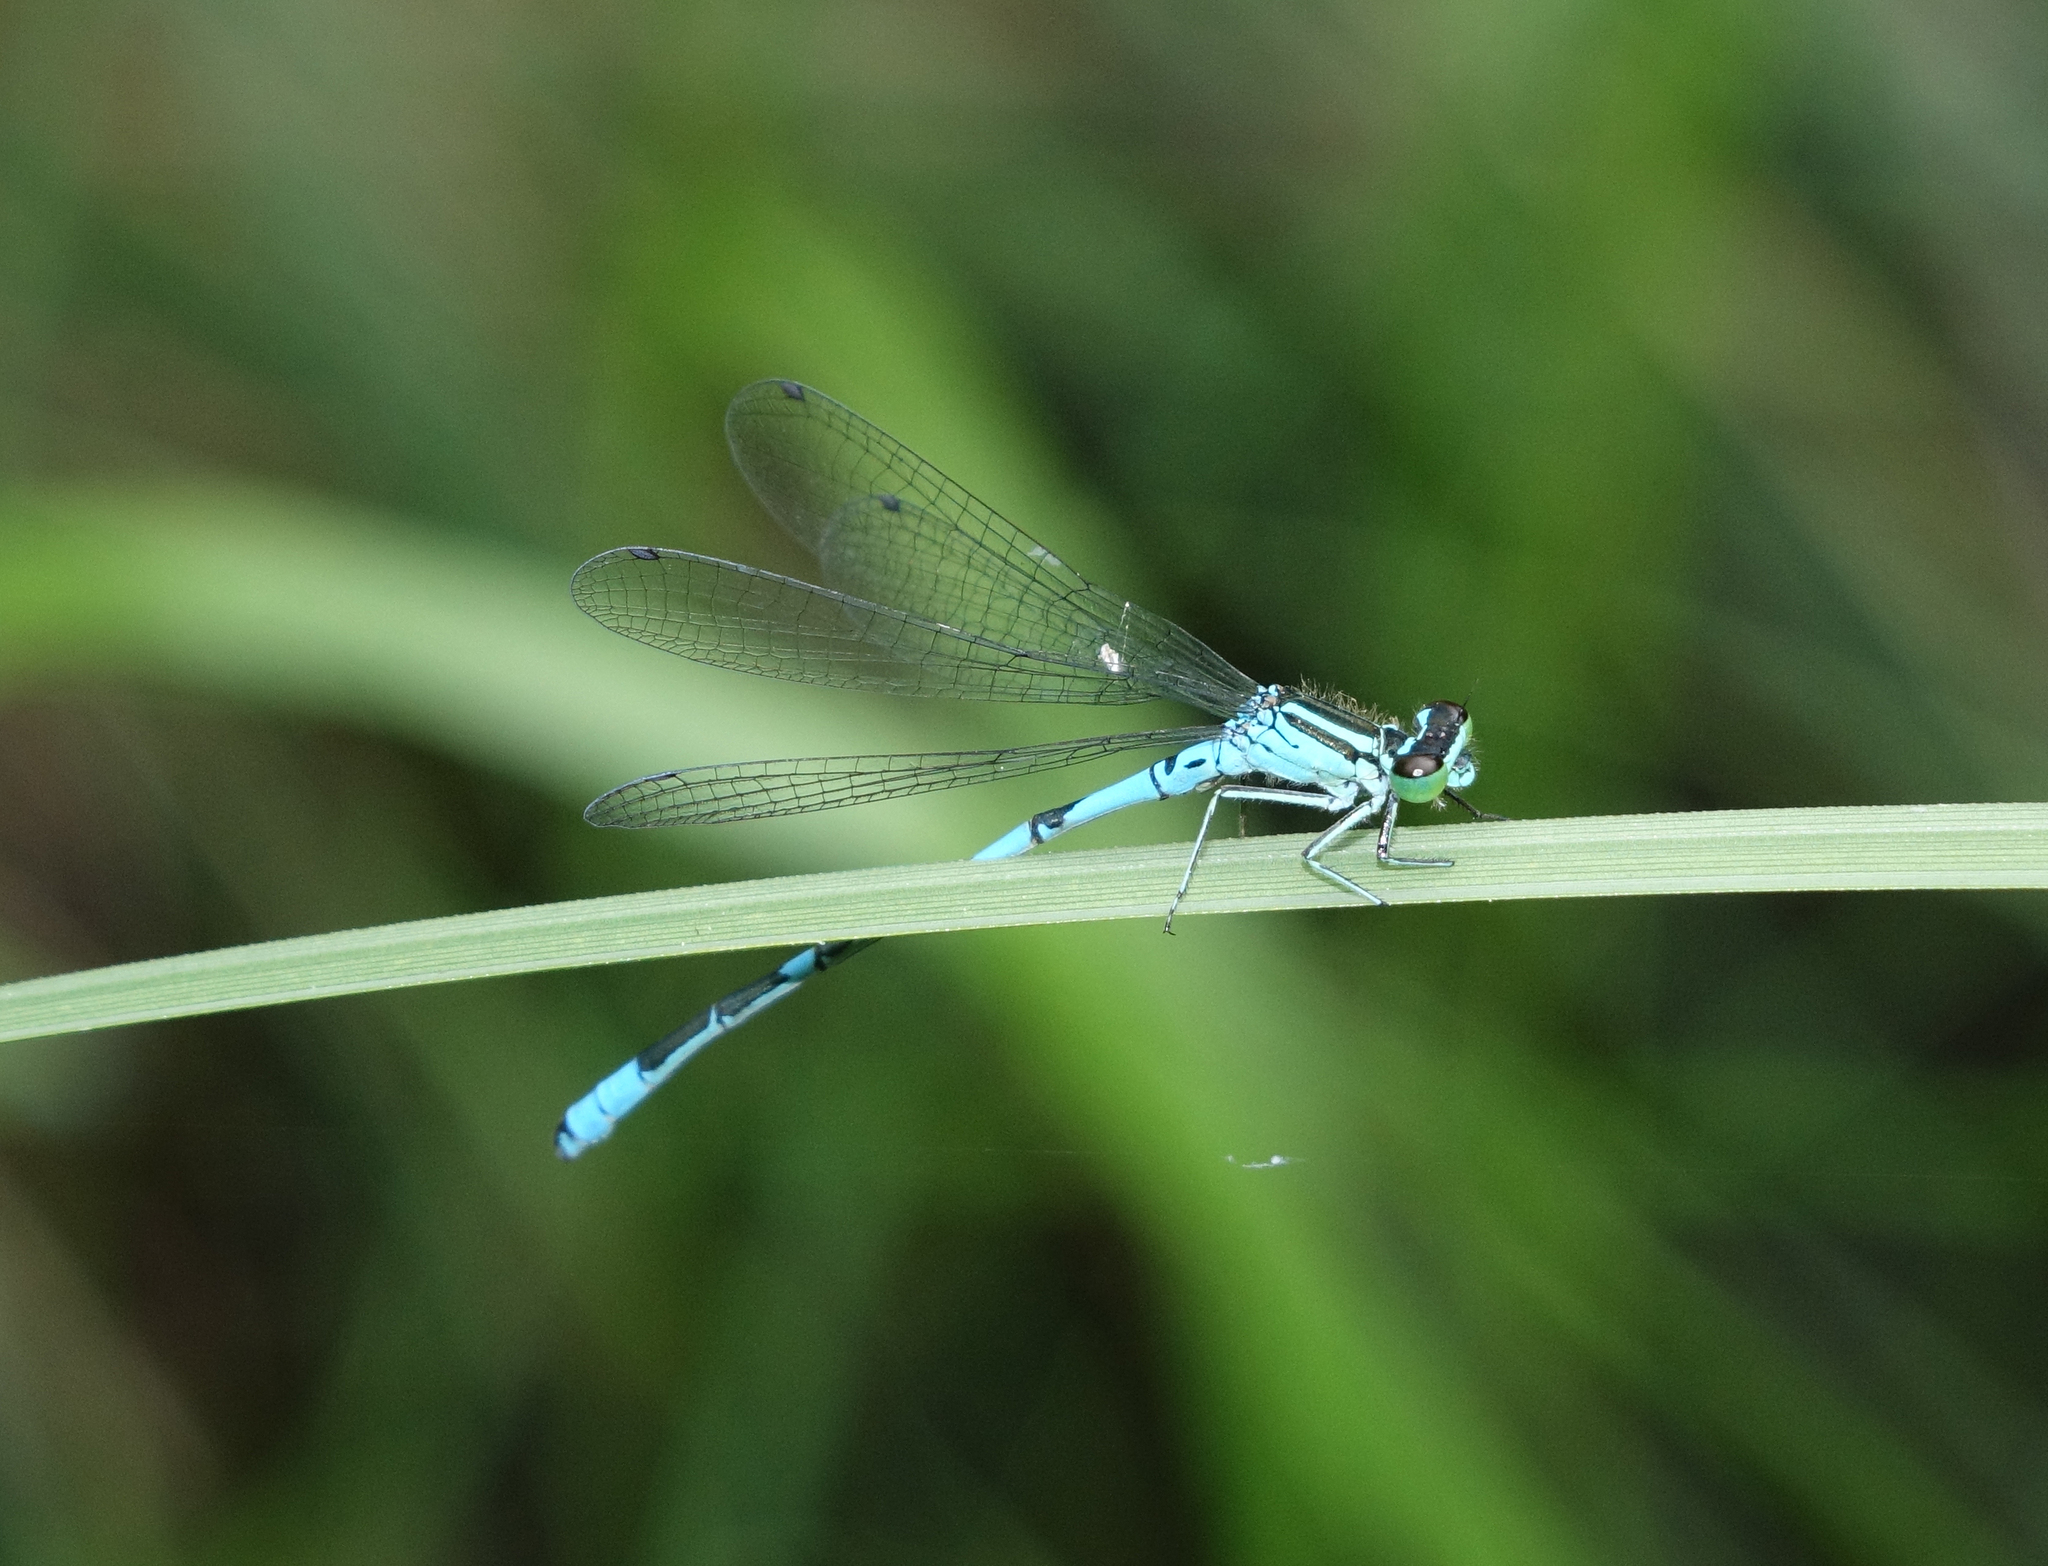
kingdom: Animalia
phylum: Arthropoda
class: Insecta
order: Odonata
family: Coenagrionidae
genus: Coenagrion
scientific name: Coenagrion hastulatum
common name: Spearhead bluet
